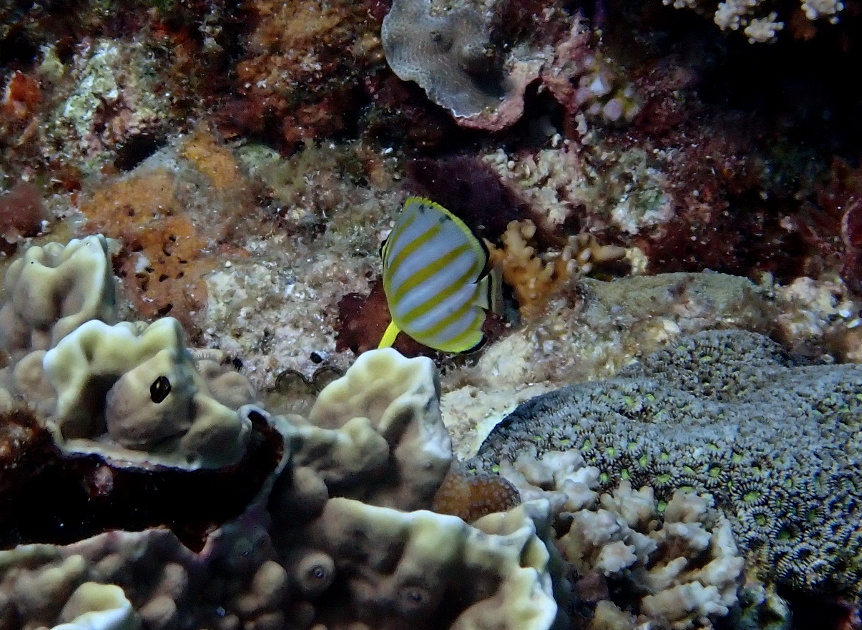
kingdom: Animalia
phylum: Chordata
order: Perciformes
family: Chaetodontidae
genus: Chaetodon
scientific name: Chaetodon ornatissimus
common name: Ornate butterflyfish
